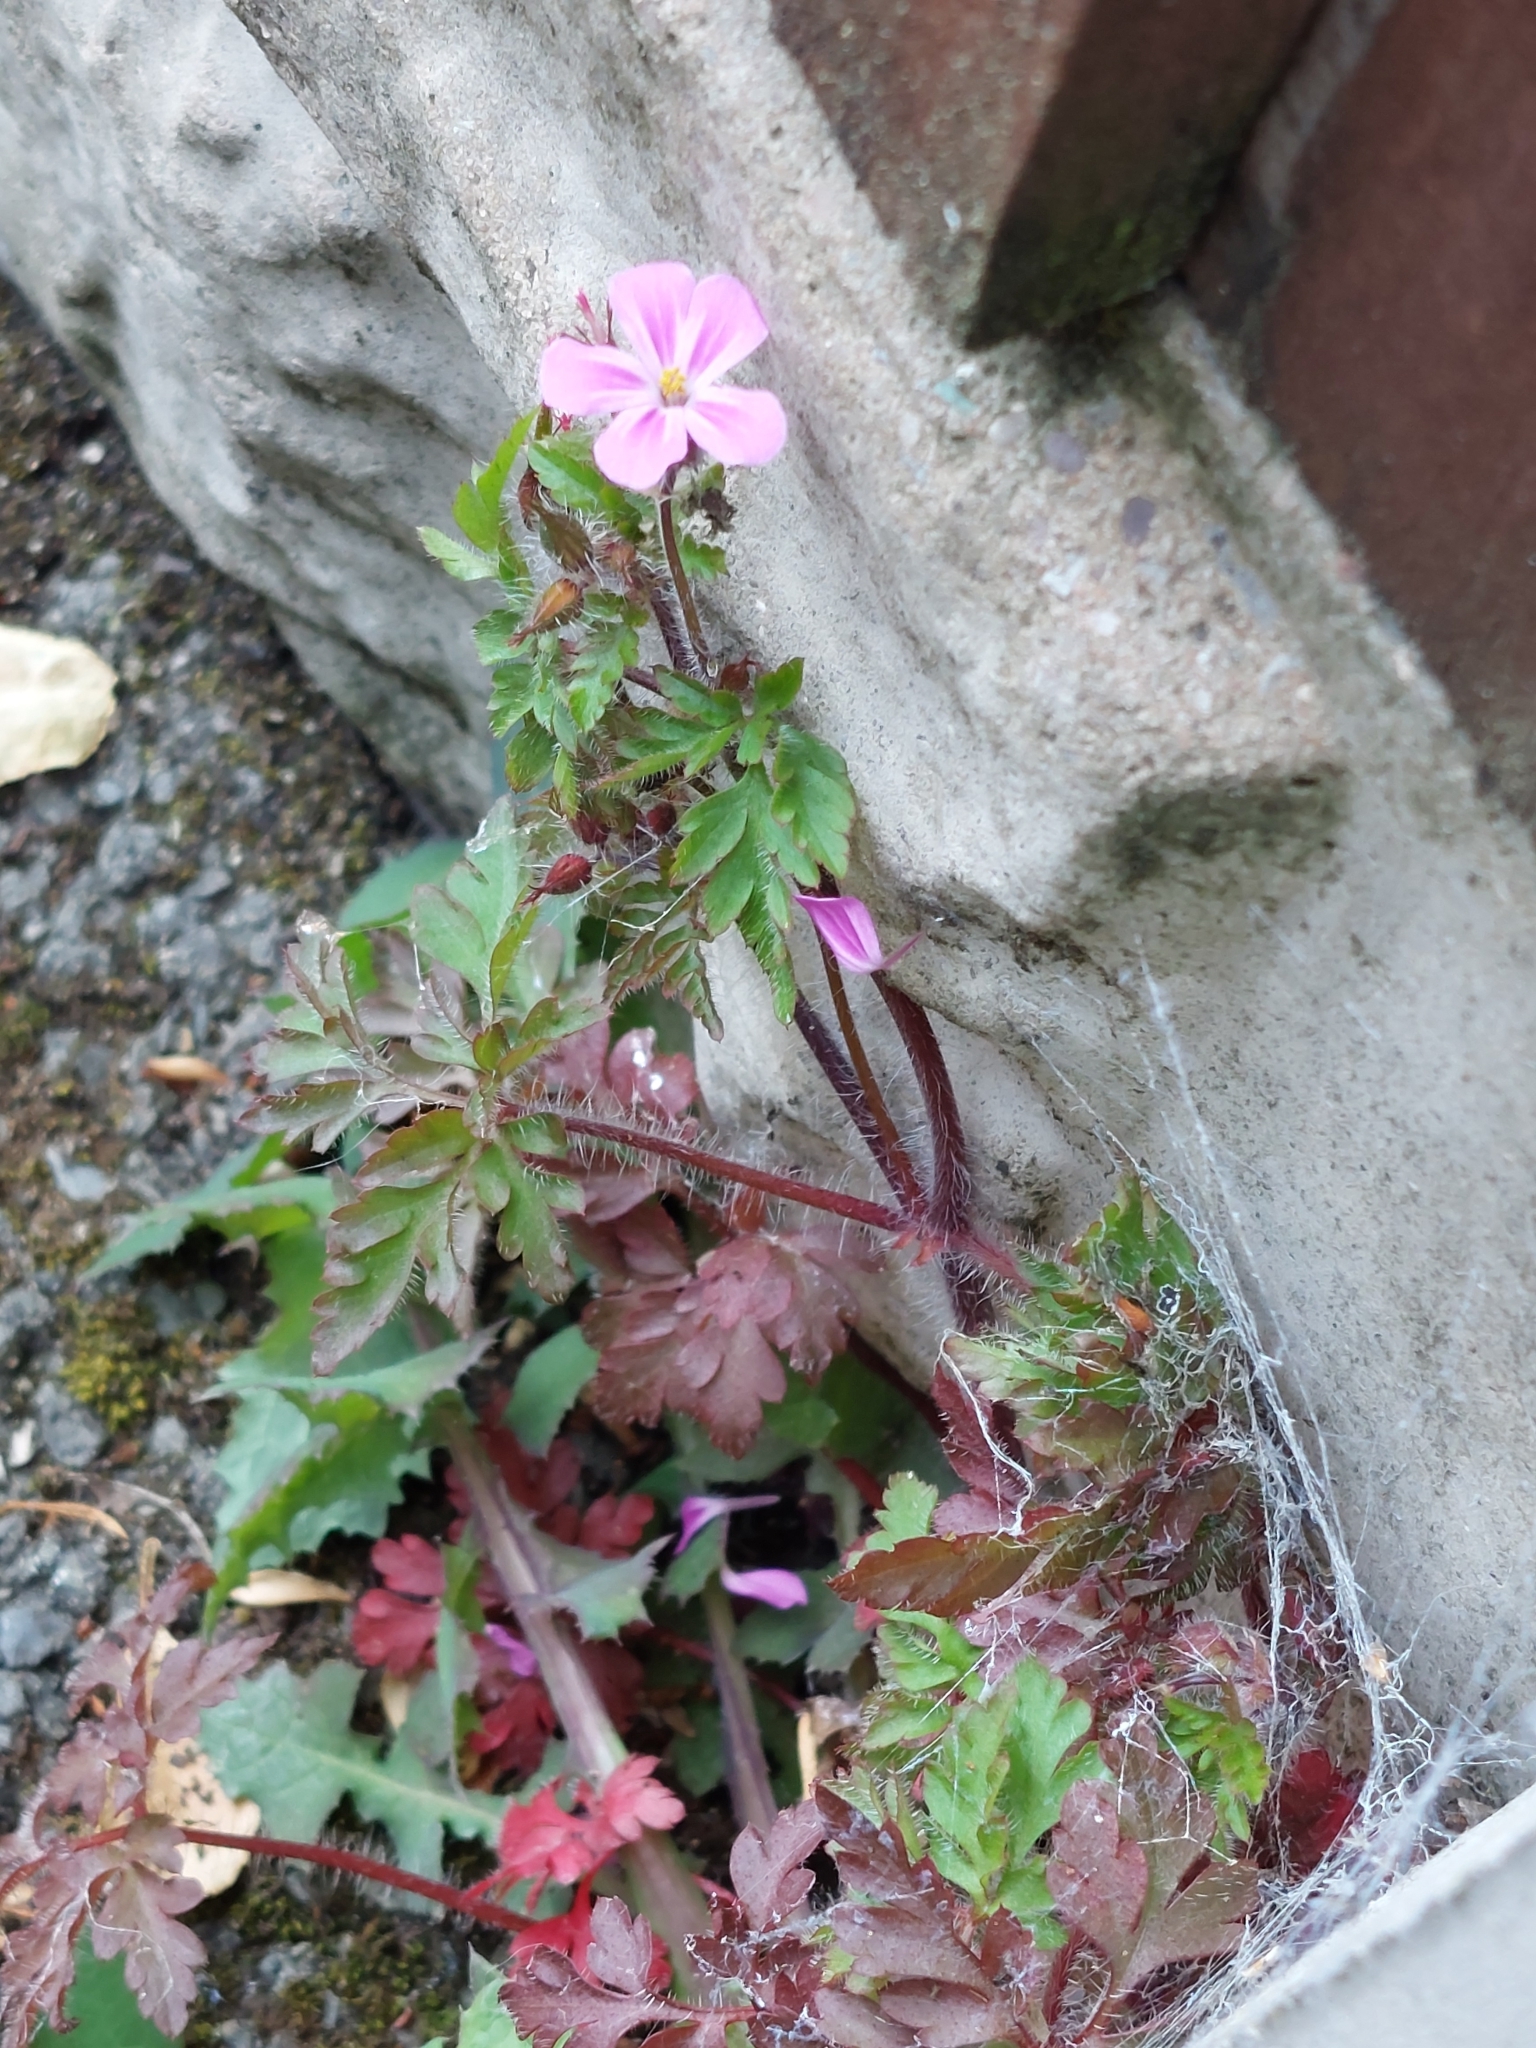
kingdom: Plantae
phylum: Tracheophyta
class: Magnoliopsida
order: Geraniales
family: Geraniaceae
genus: Geranium
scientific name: Geranium robertianum
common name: Herb-robert
